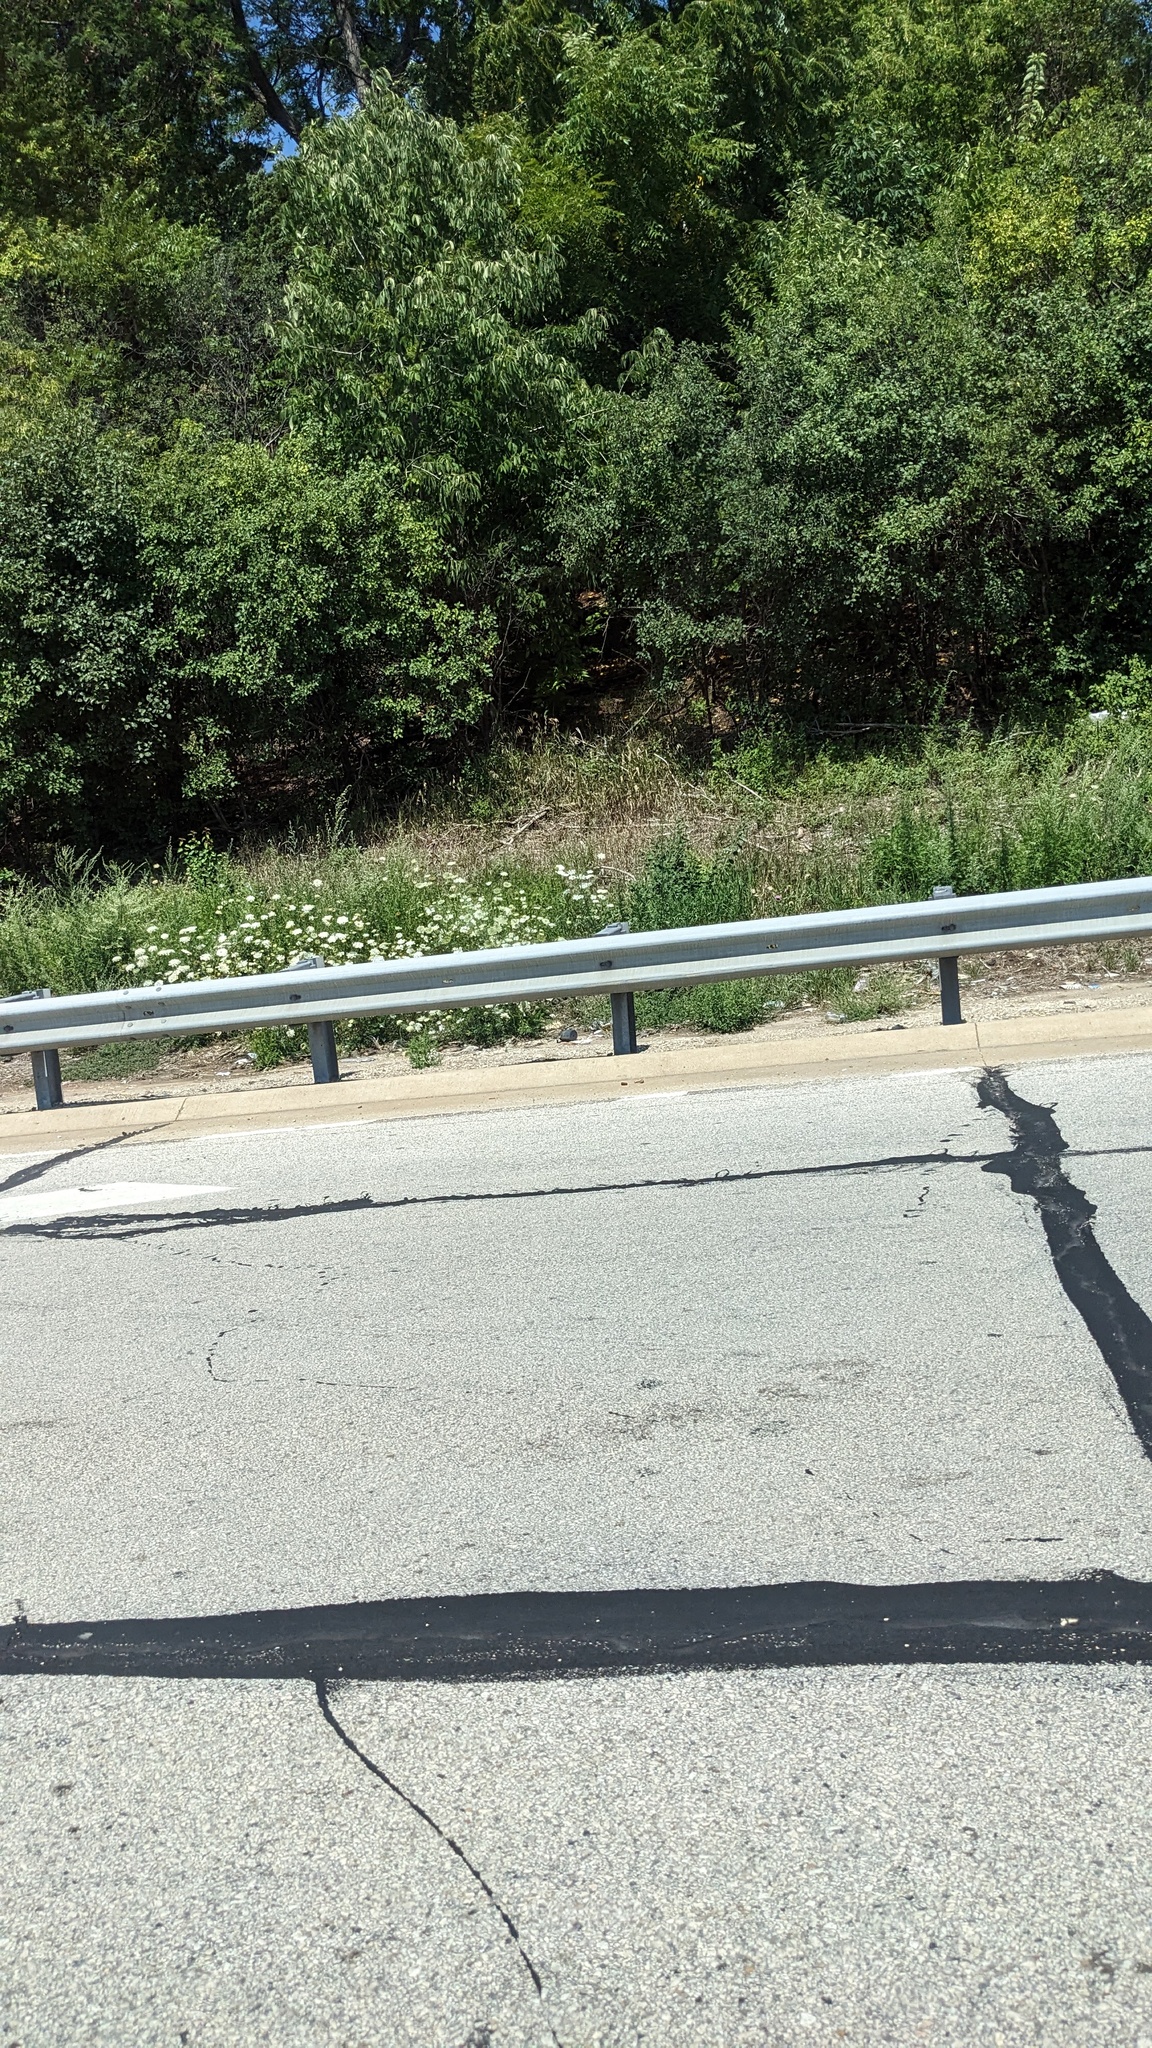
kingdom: Plantae
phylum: Tracheophyta
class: Magnoliopsida
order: Apiales
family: Apiaceae
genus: Daucus
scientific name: Daucus carota
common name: Wild carrot
